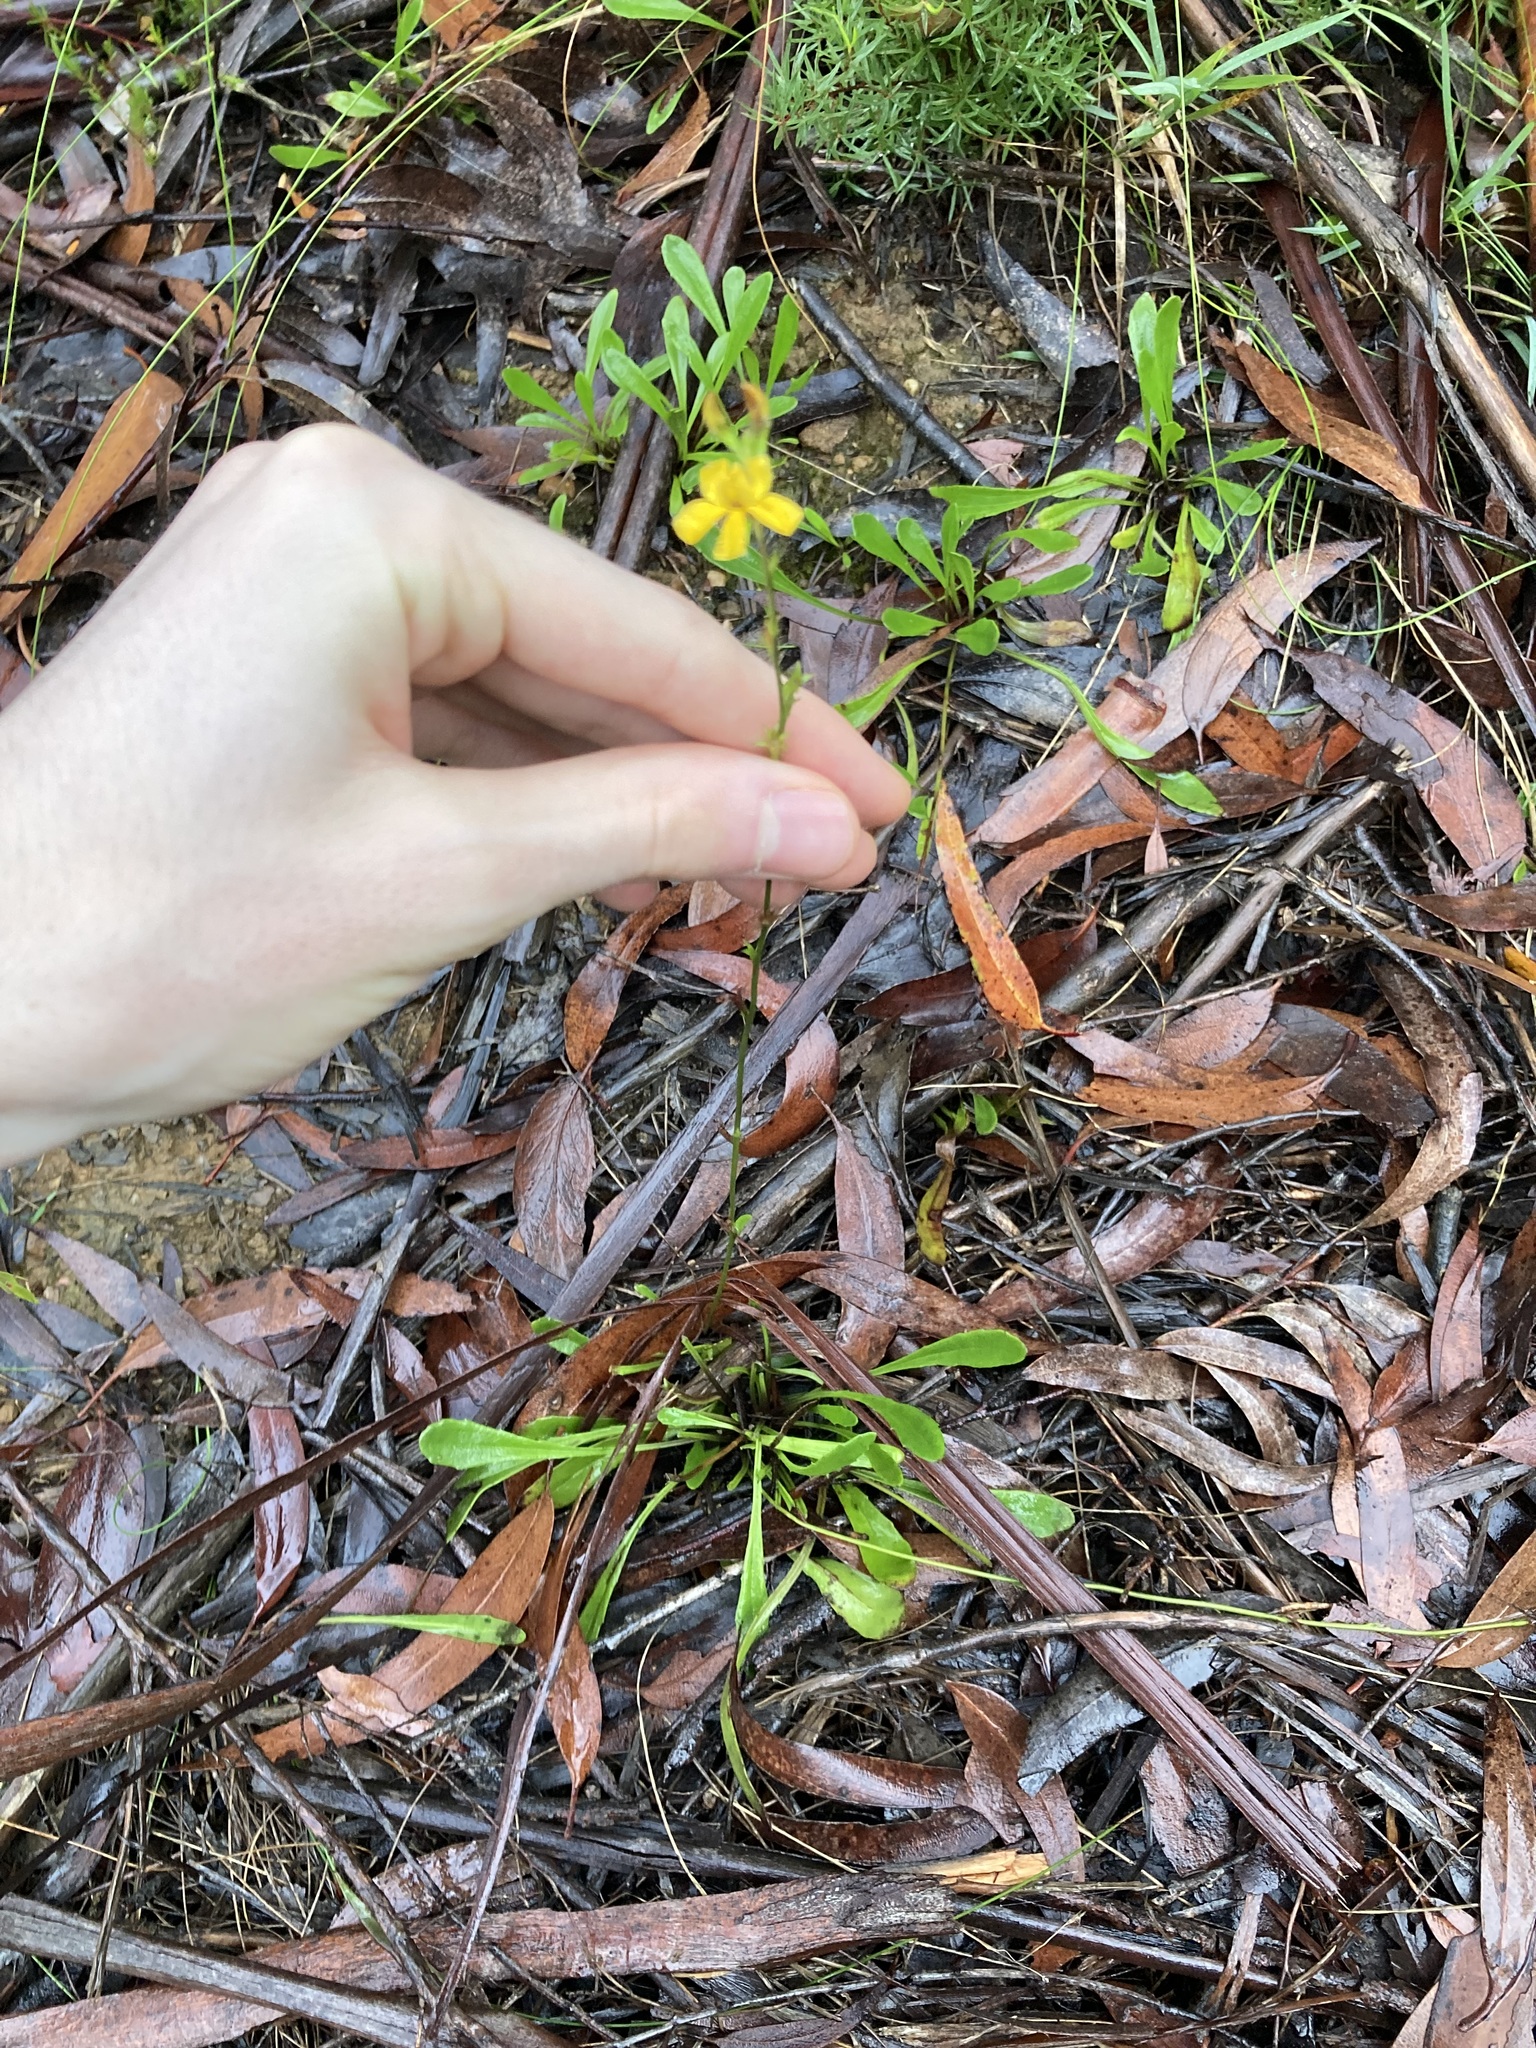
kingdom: Plantae
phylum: Tracheophyta
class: Magnoliopsida
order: Asterales
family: Goodeniaceae
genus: Goodenia
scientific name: Goodenia bellidifolia
